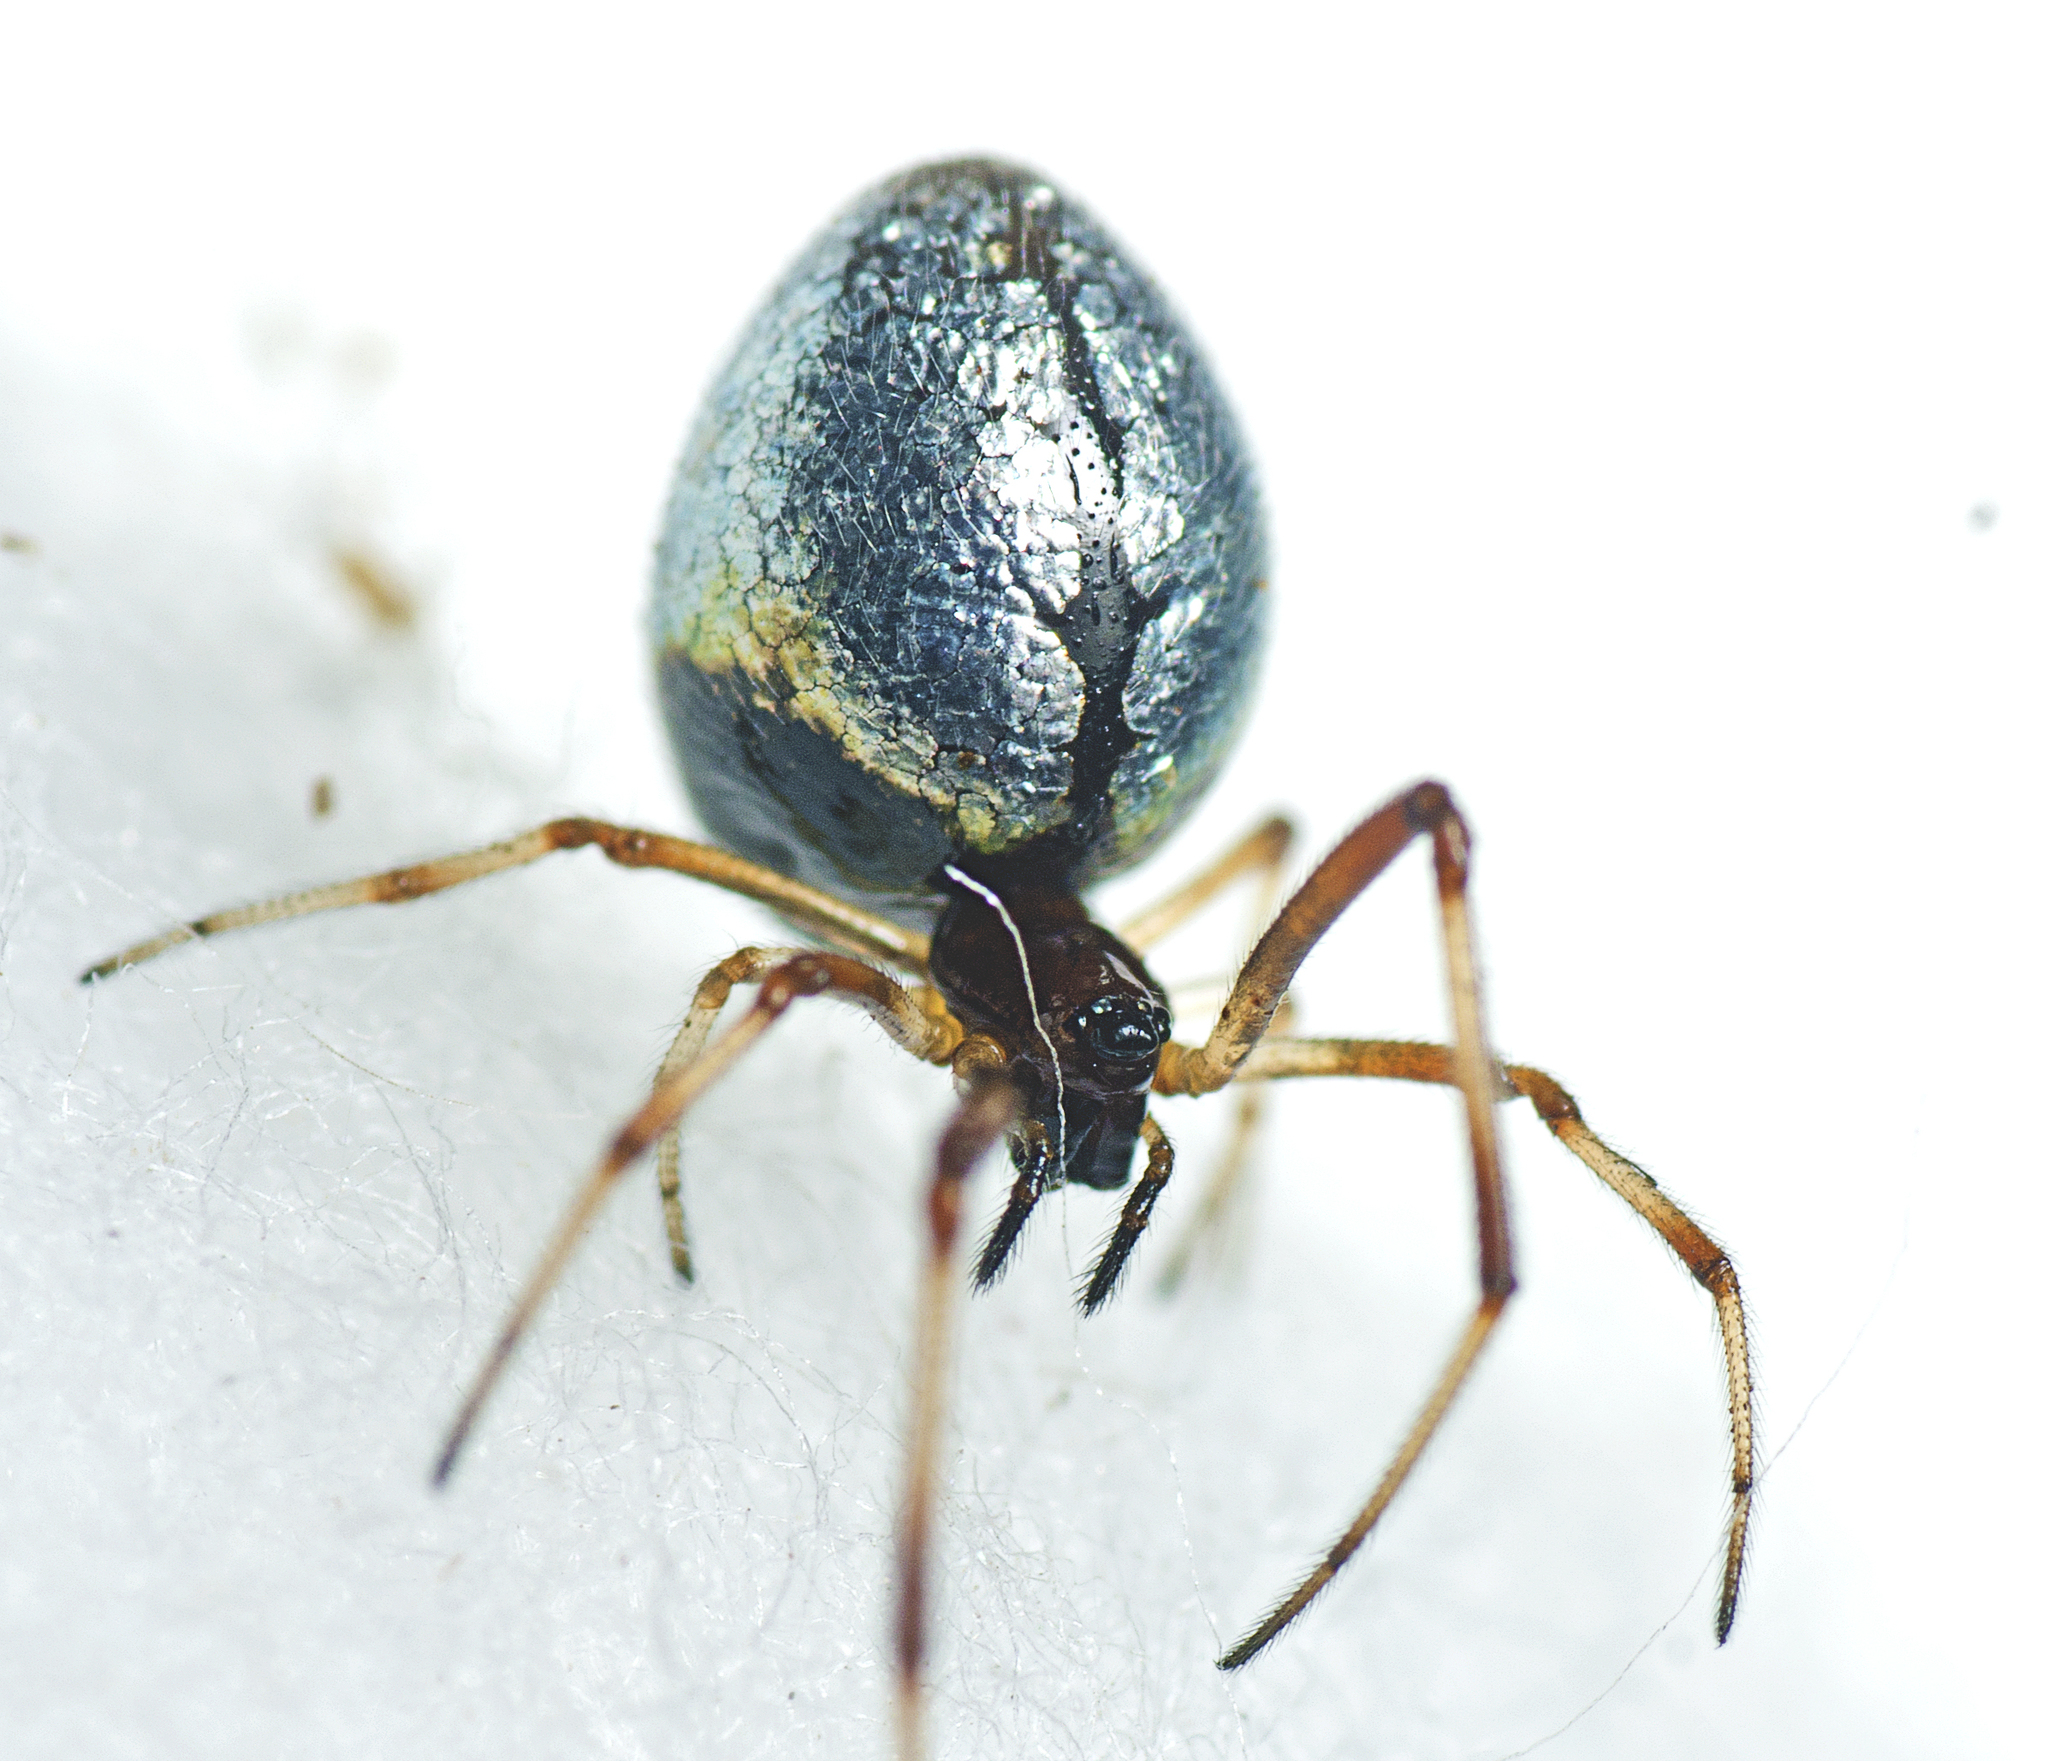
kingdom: Animalia
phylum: Arthropoda
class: Arachnida
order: Araneae
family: Theridiidae
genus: Argyrodes
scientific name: Argyrodes antipodianus
